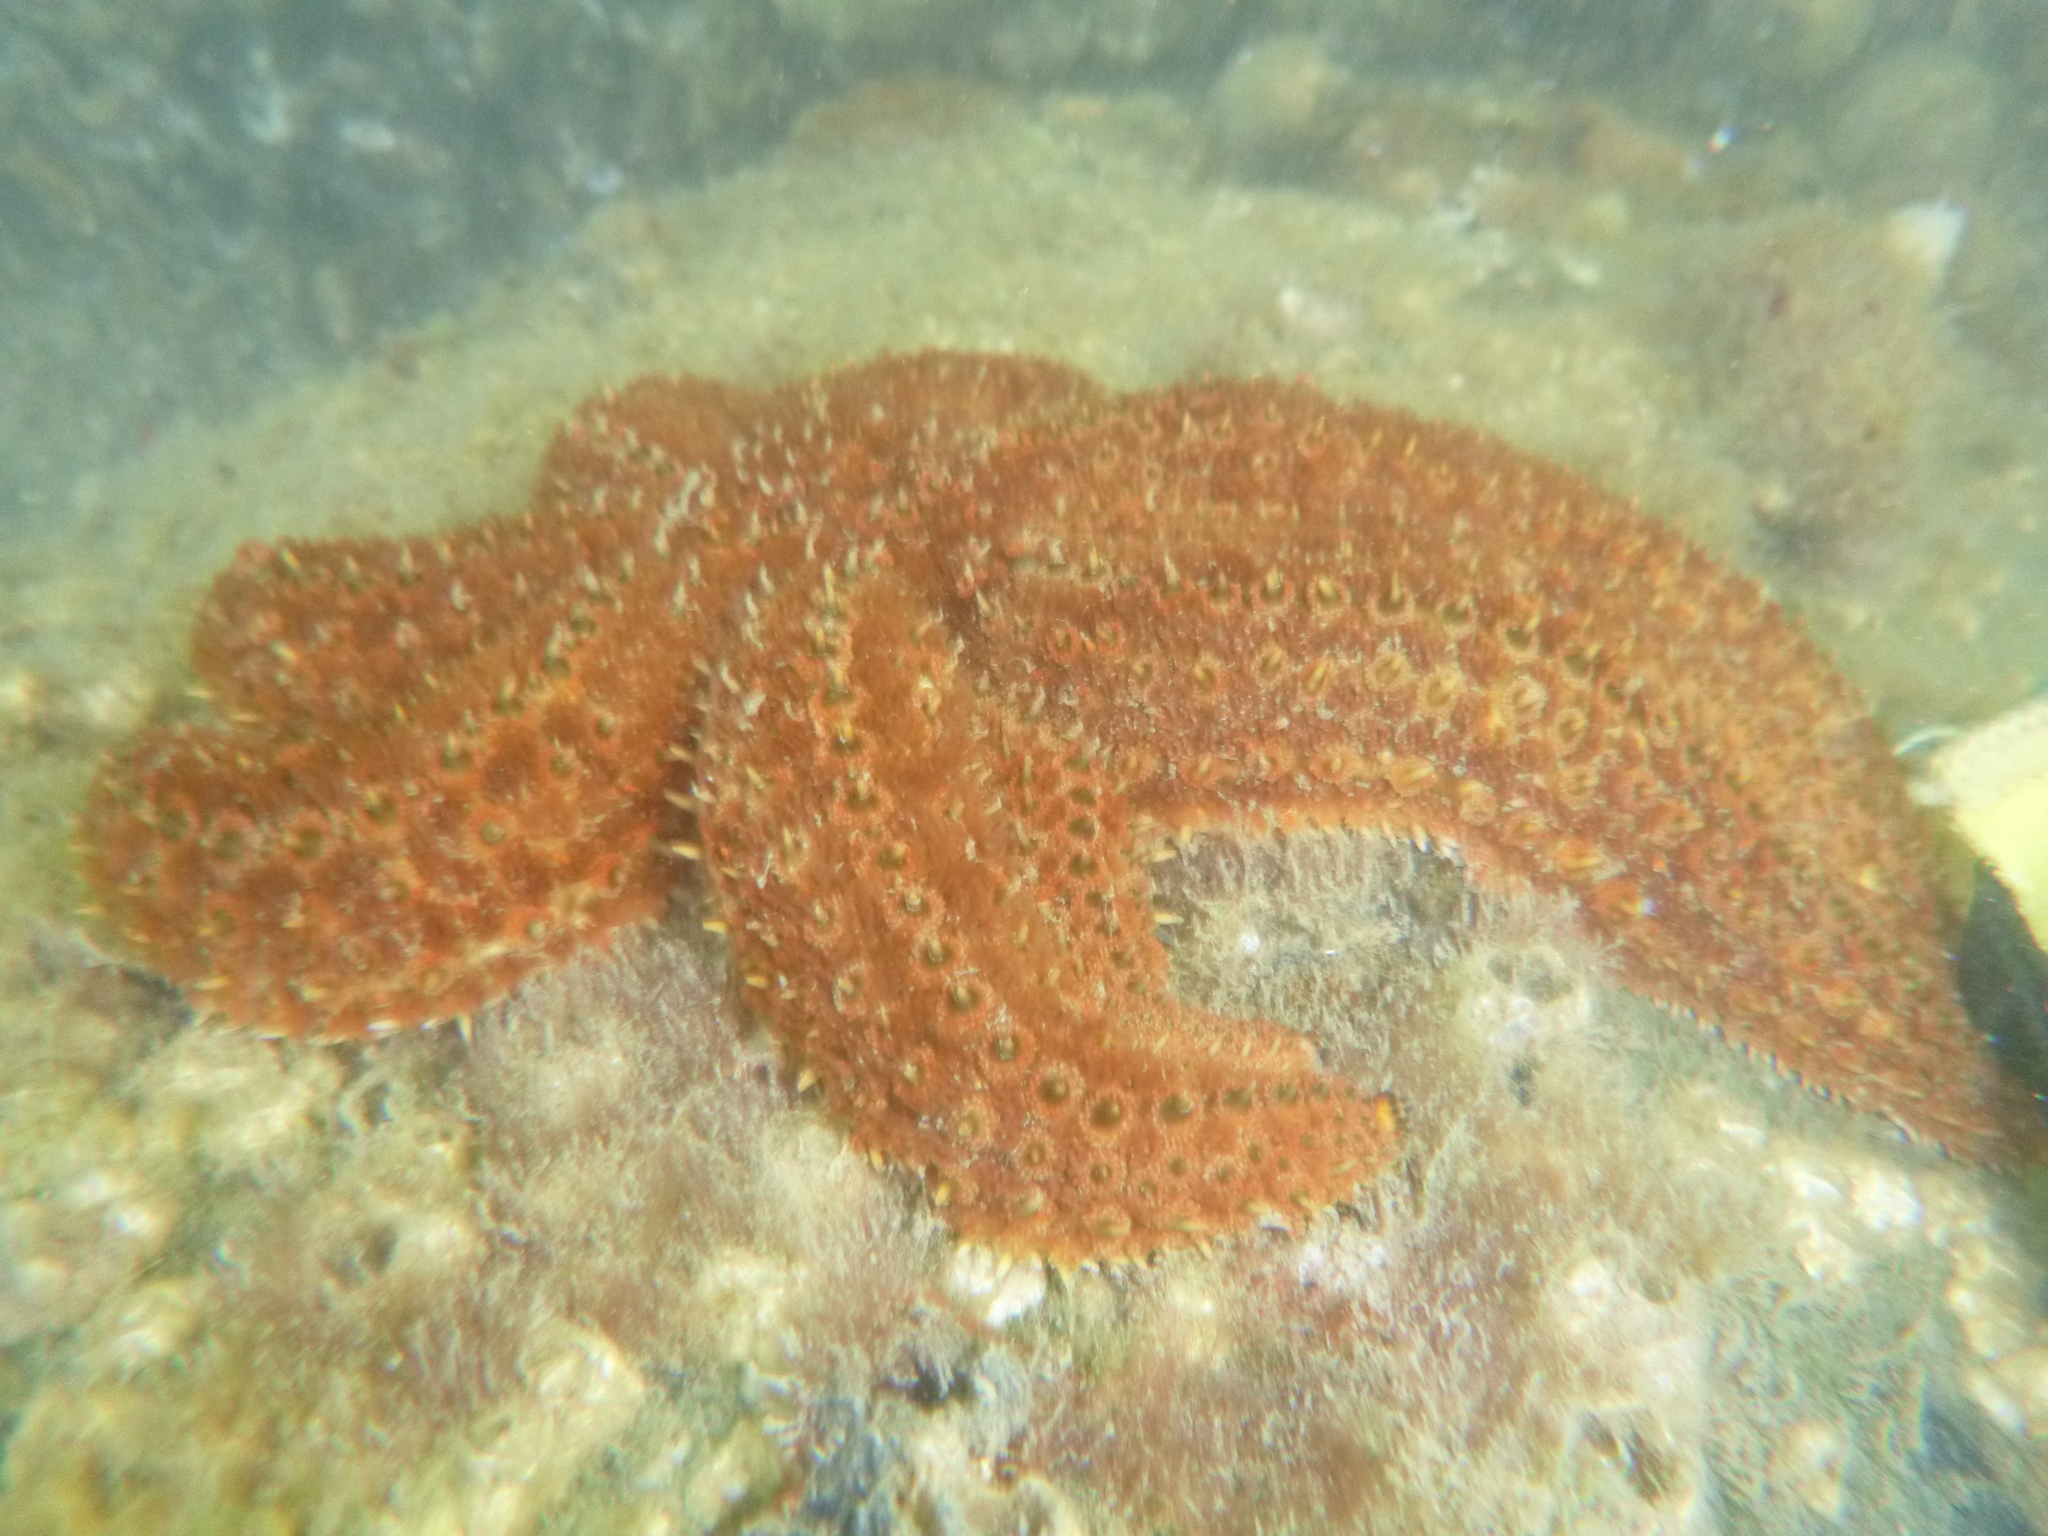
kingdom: Animalia
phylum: Echinodermata
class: Asteroidea
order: Forcipulatida
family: Asteriidae
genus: Coscinasterias
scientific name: Coscinasterias muricata
